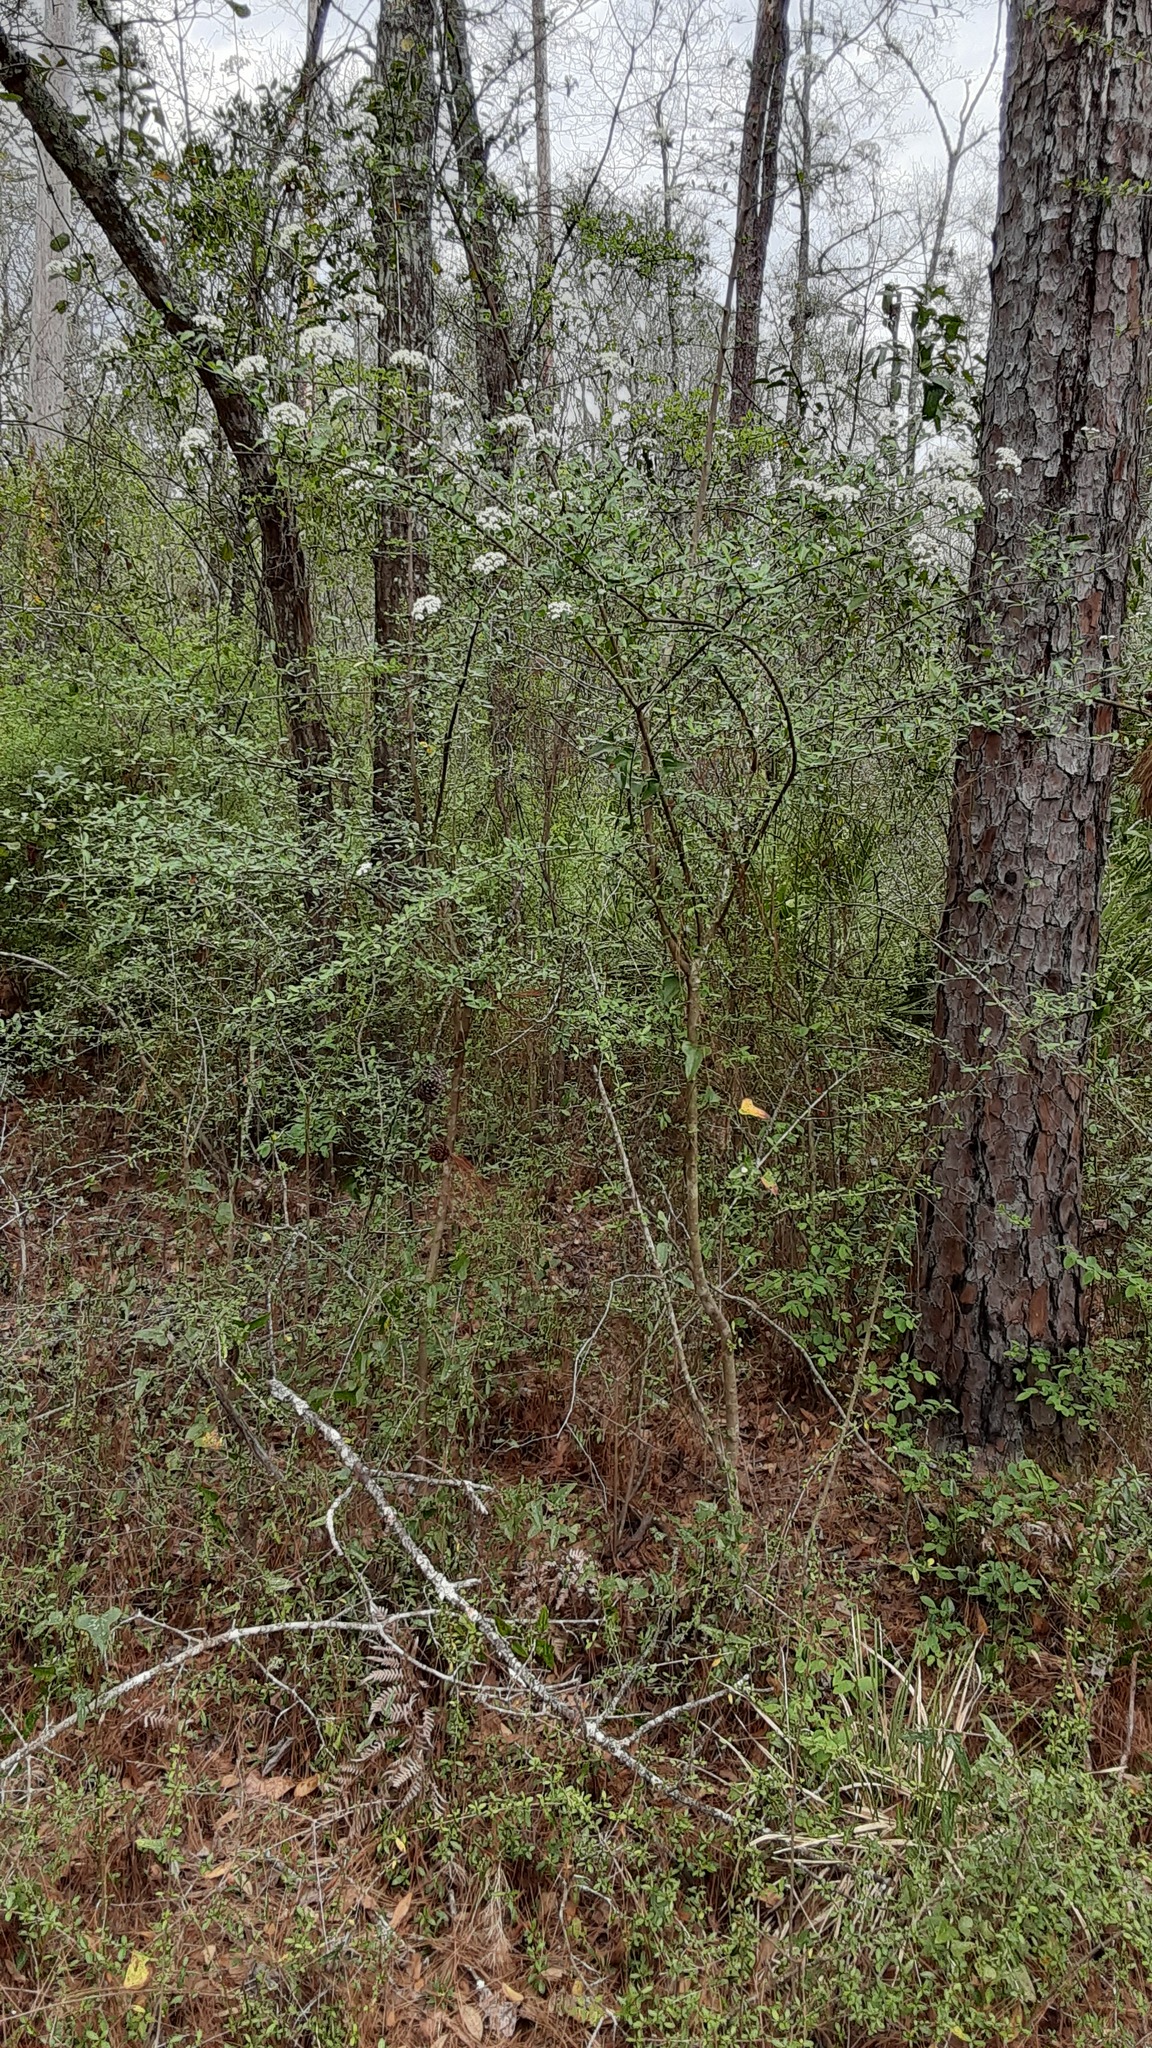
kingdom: Plantae
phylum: Tracheophyta
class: Magnoliopsida
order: Dipsacales
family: Viburnaceae
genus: Viburnum
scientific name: Viburnum obovatum
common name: Walter's viburnum
